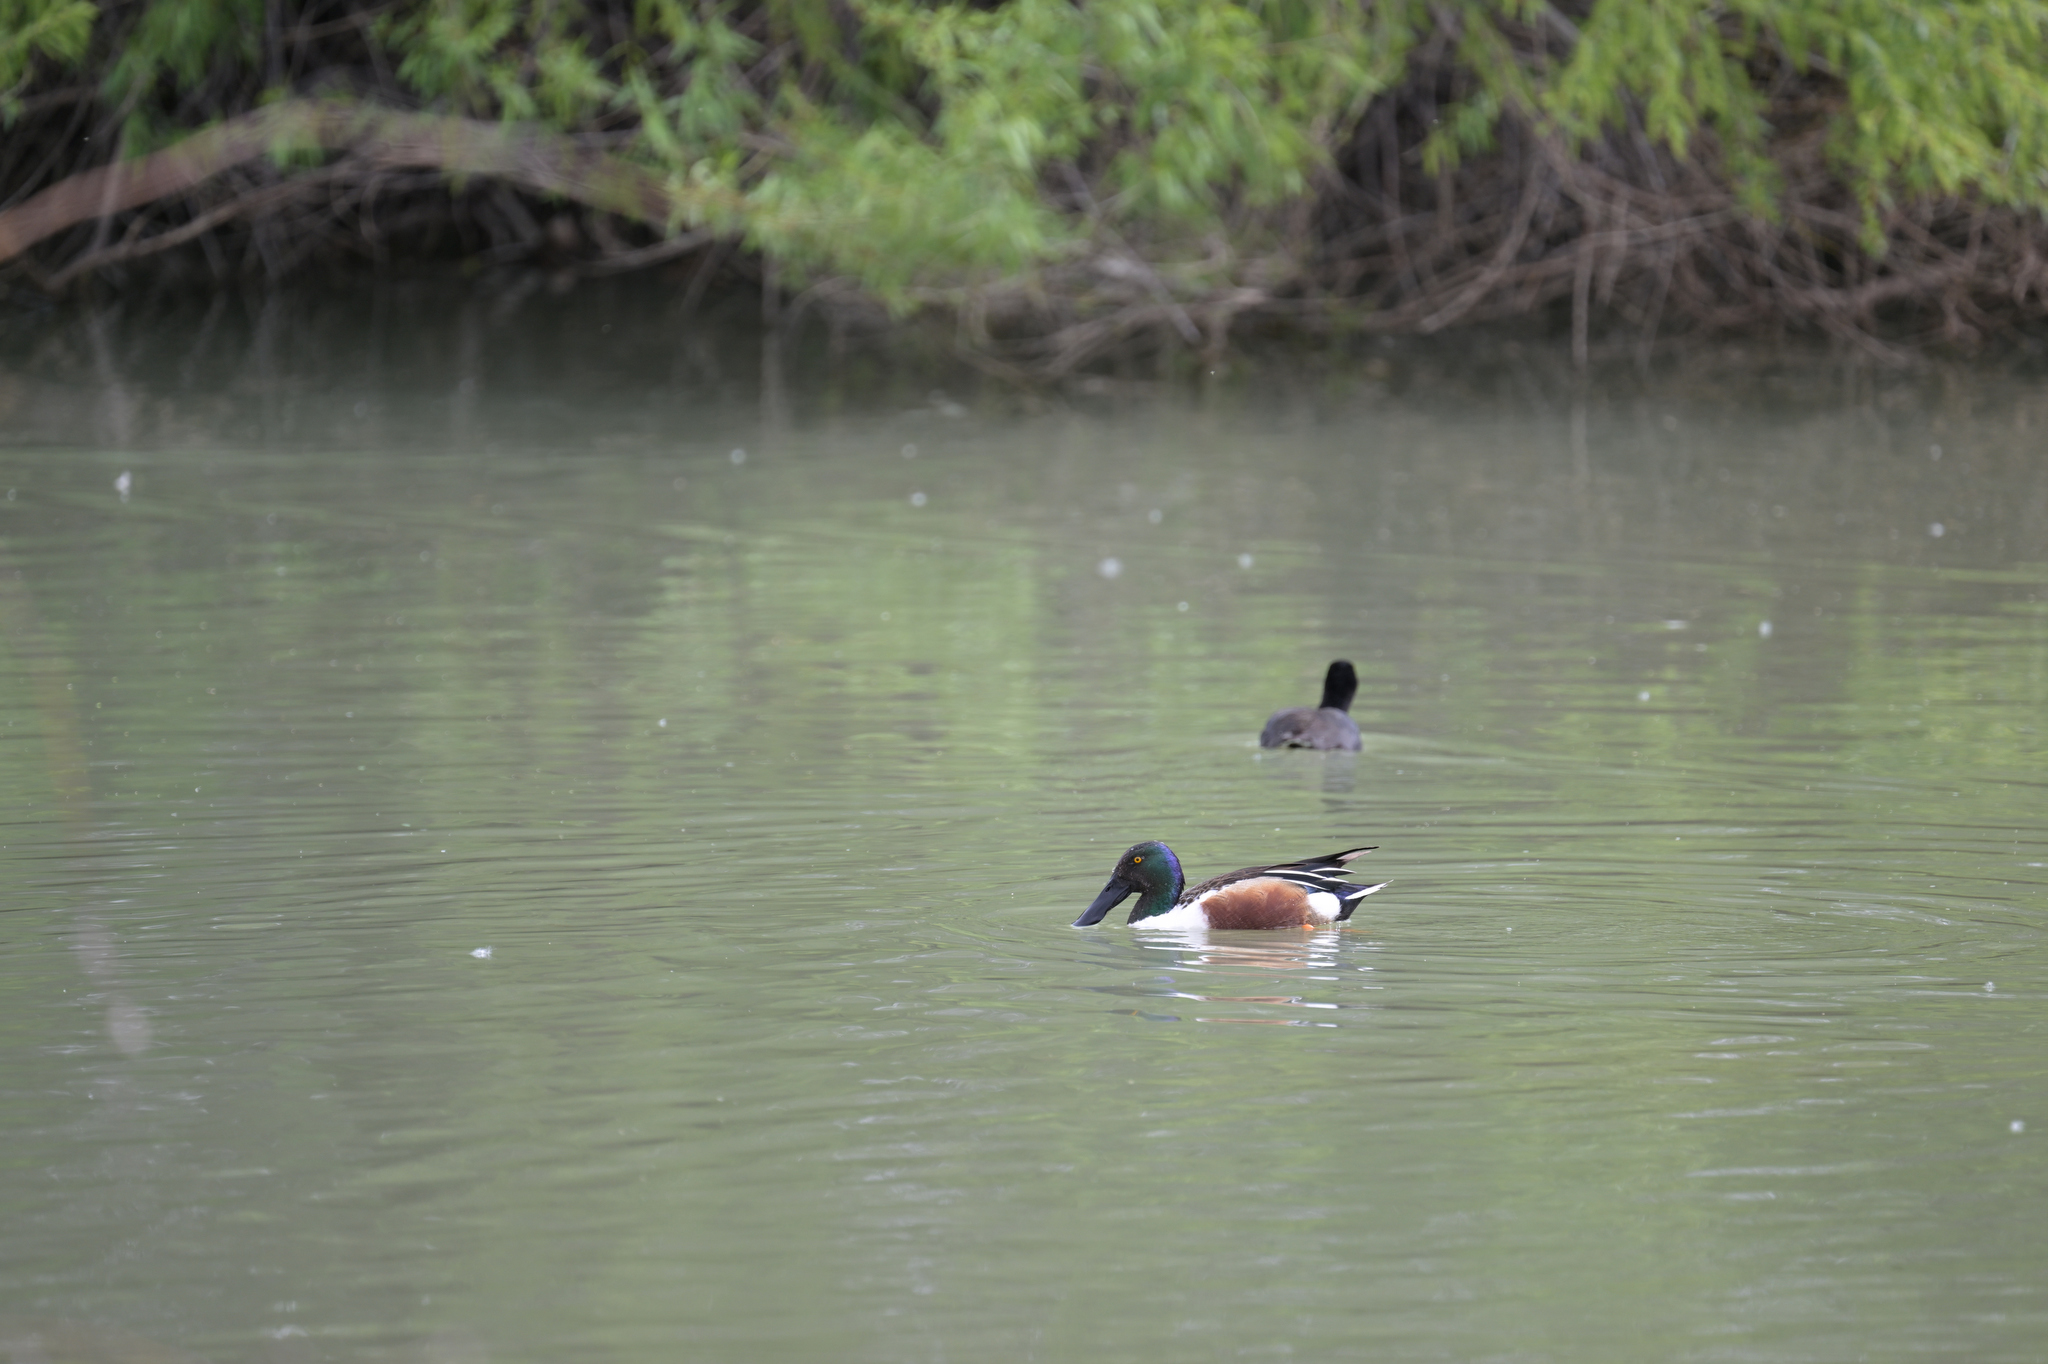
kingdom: Animalia
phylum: Chordata
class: Aves
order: Anseriformes
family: Anatidae
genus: Spatula
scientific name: Spatula clypeata
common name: Northern shoveler
